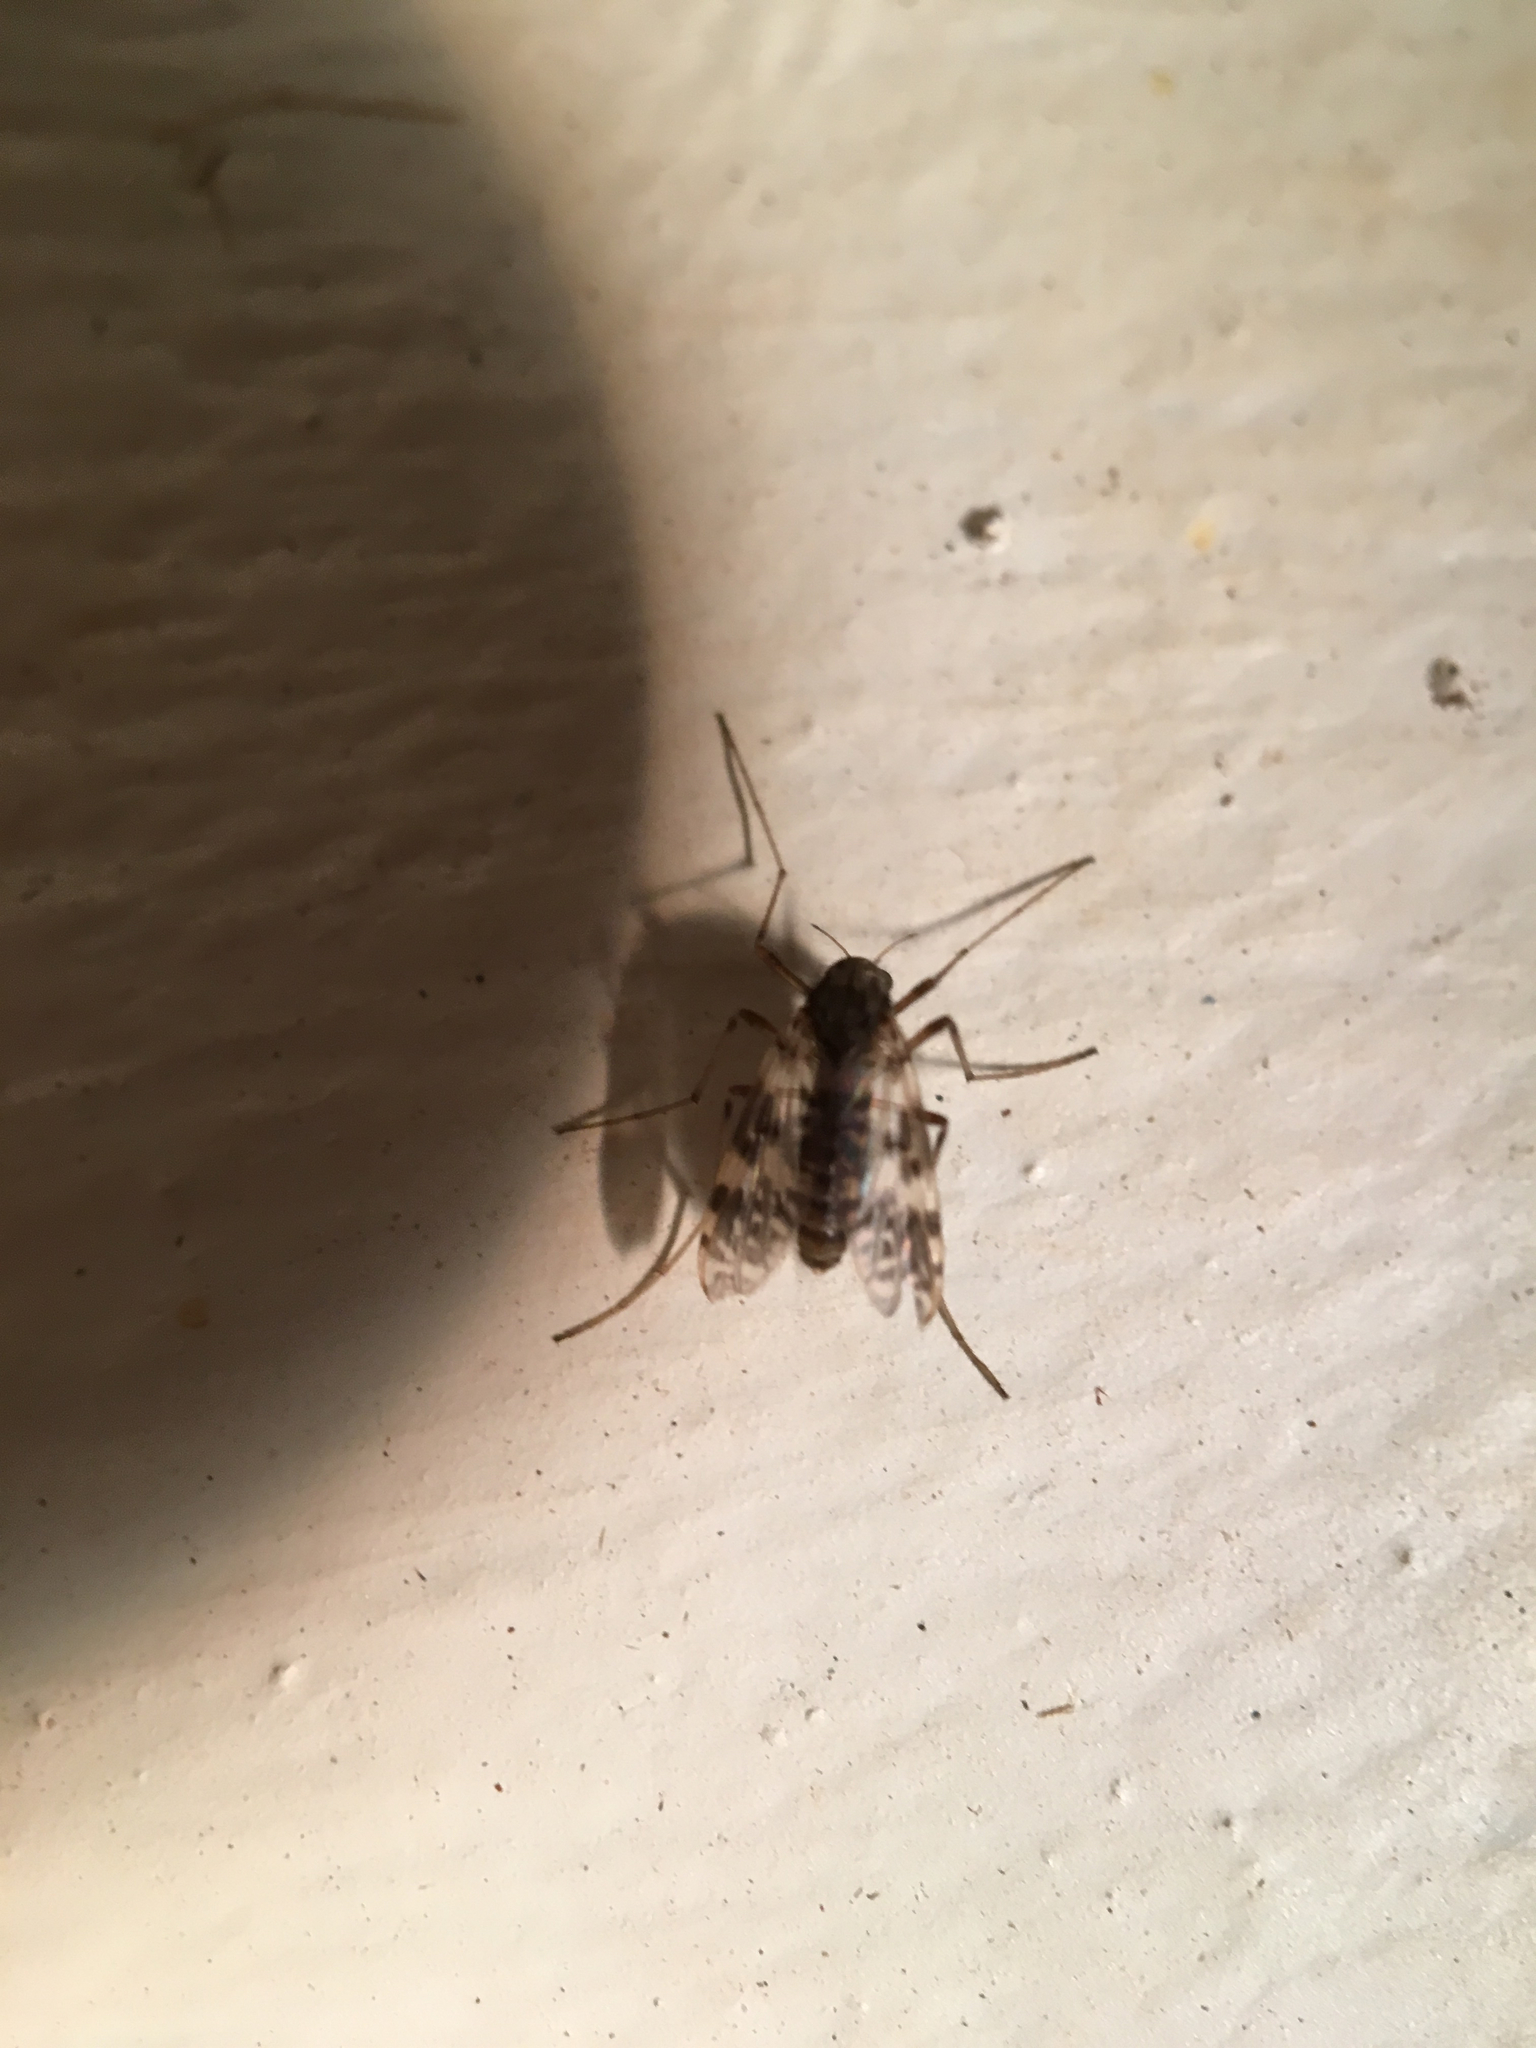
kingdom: Animalia
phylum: Arthropoda
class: Insecta
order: Diptera
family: Chironomidae
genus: Psectrotanypus
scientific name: Psectrotanypus dyari
